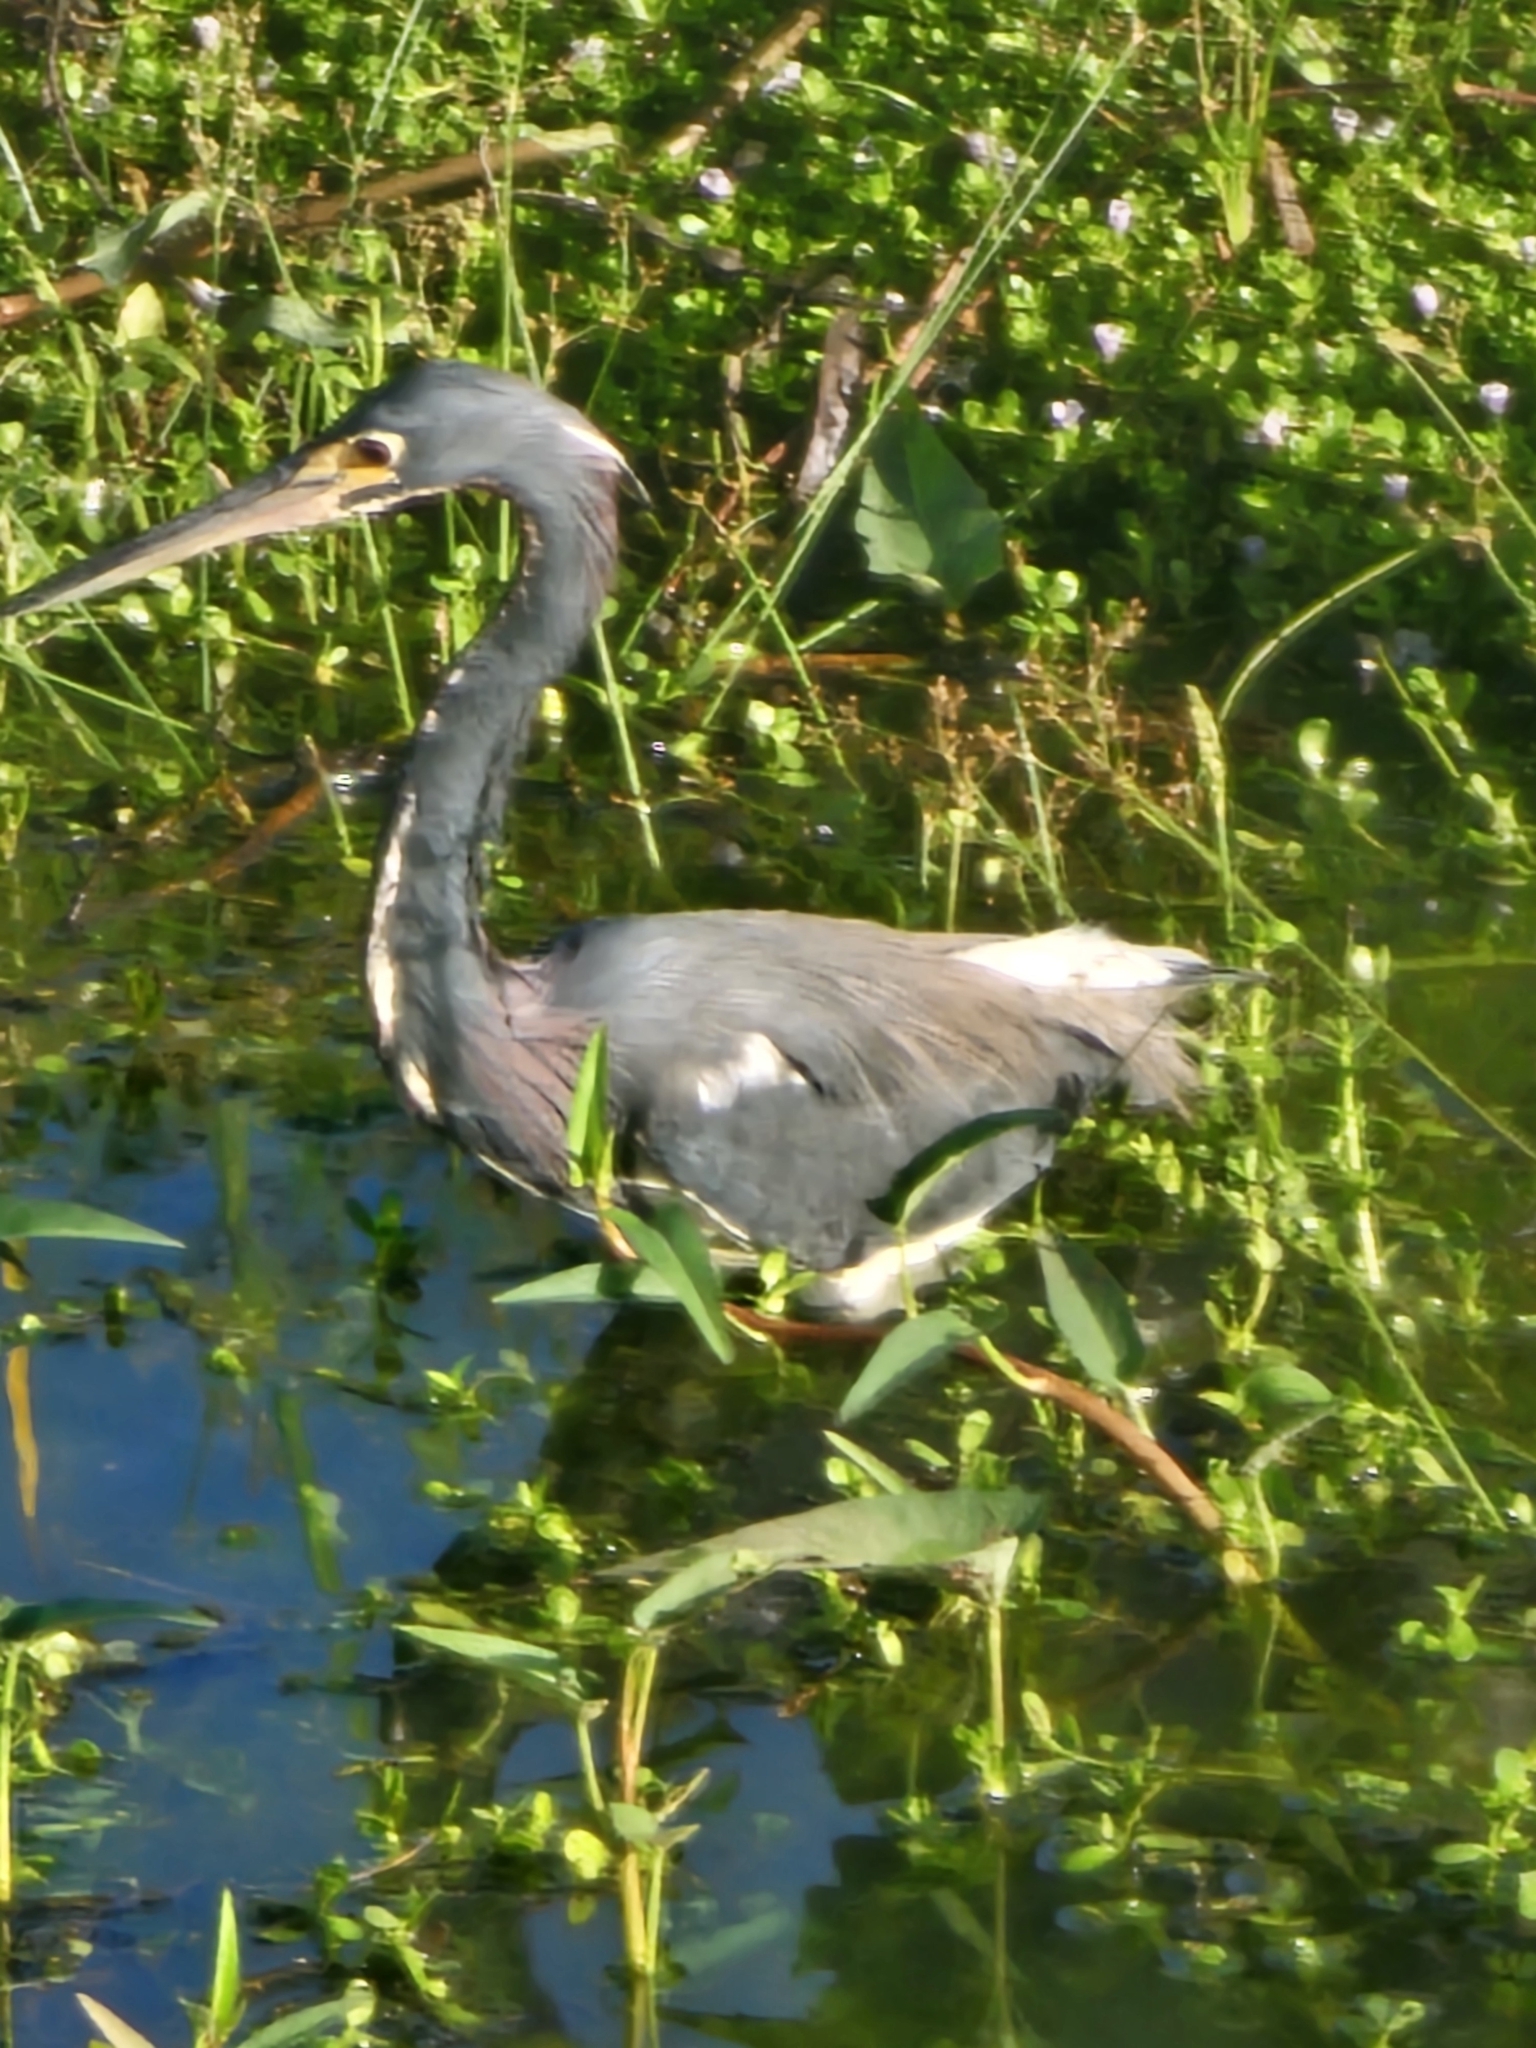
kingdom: Animalia
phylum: Chordata
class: Aves
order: Pelecaniformes
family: Ardeidae
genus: Egretta
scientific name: Egretta tricolor
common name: Tricolored heron
